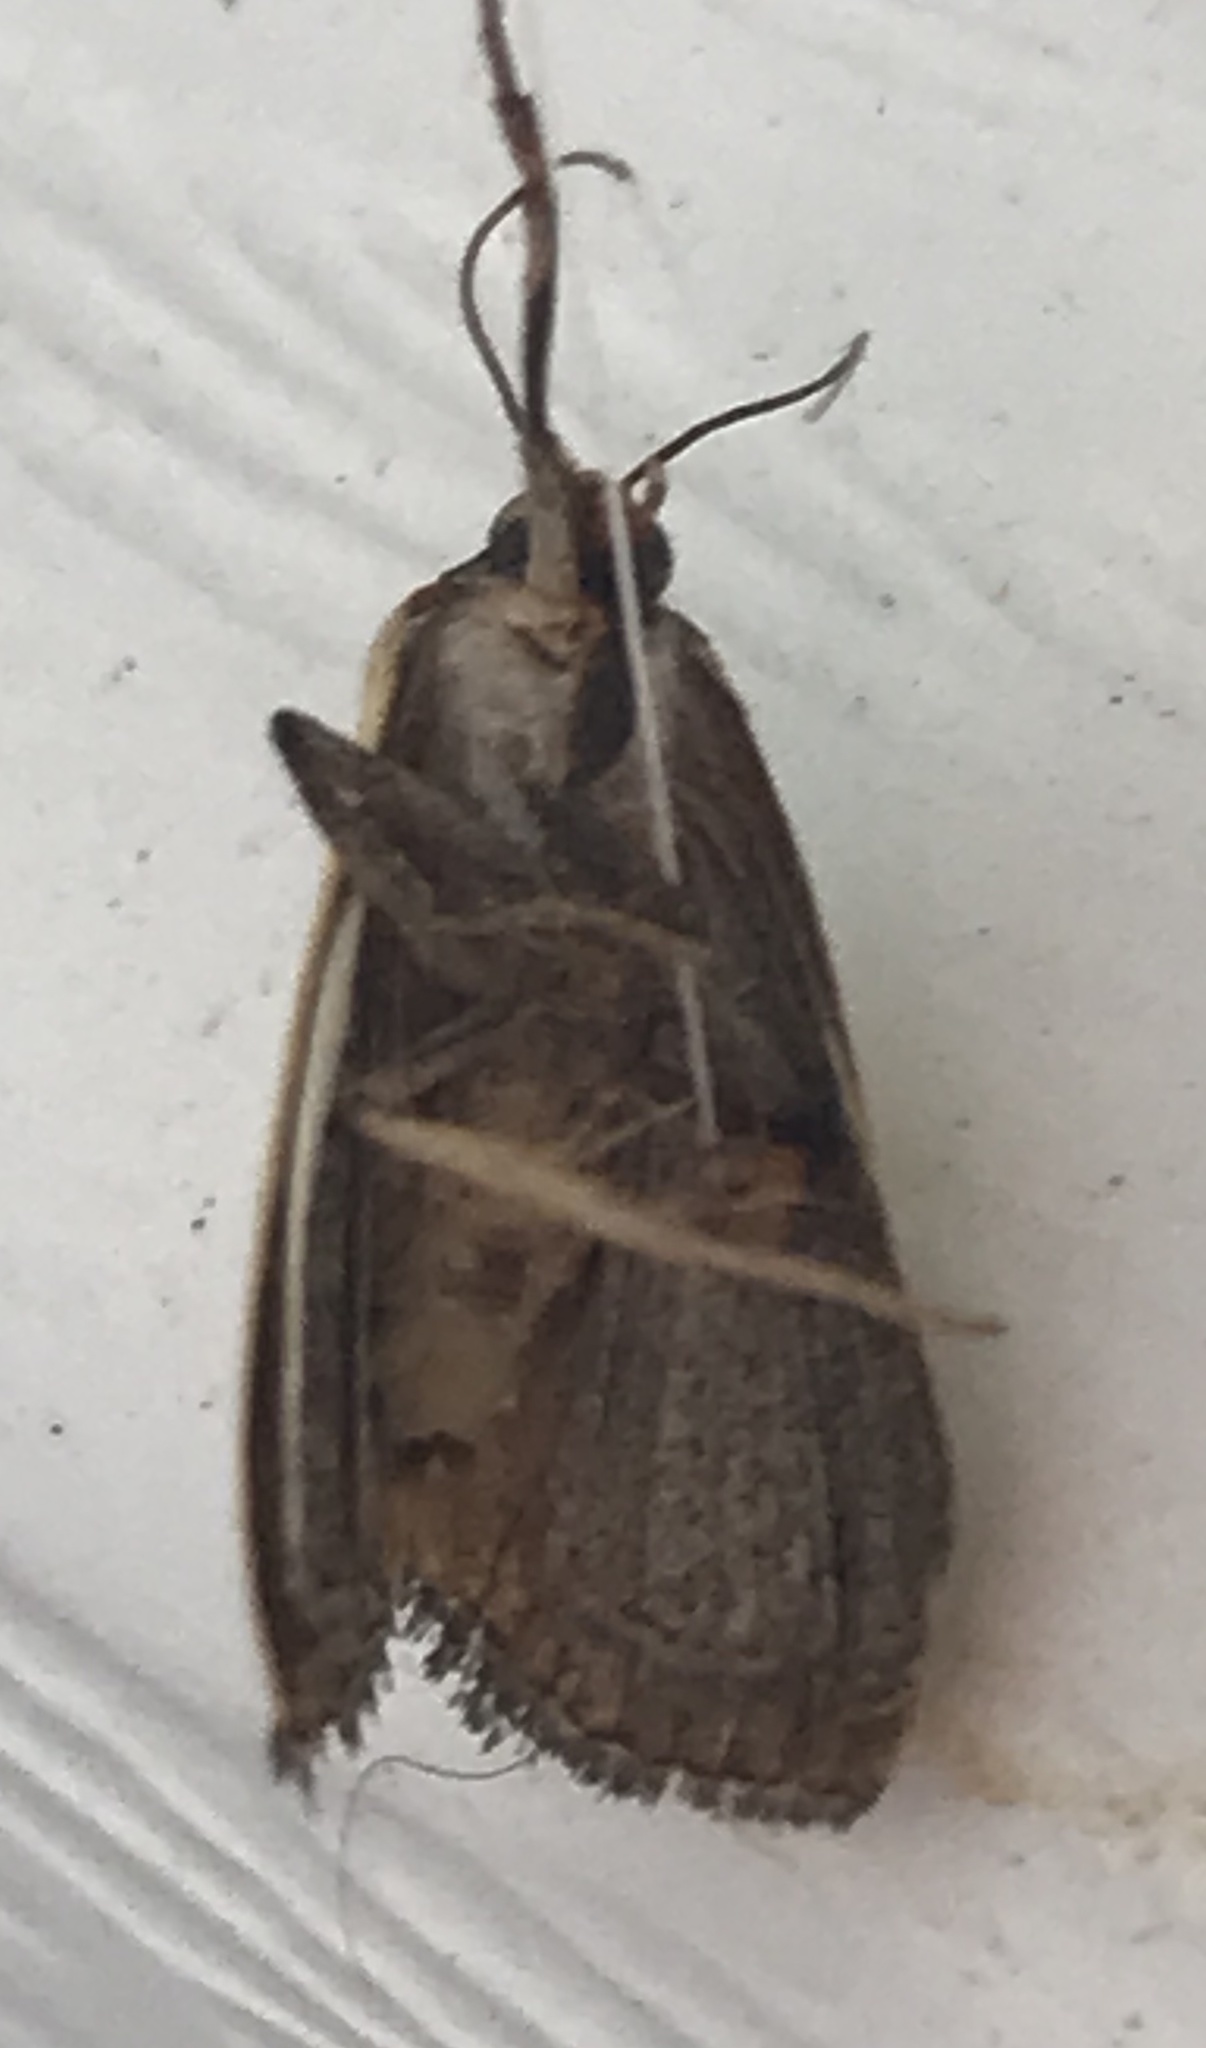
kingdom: Animalia
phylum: Arthropoda
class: Insecta
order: Lepidoptera
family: Noctuidae
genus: Marimatha
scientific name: Marimatha nigrofimbria
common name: Black-bordered lemon moth
